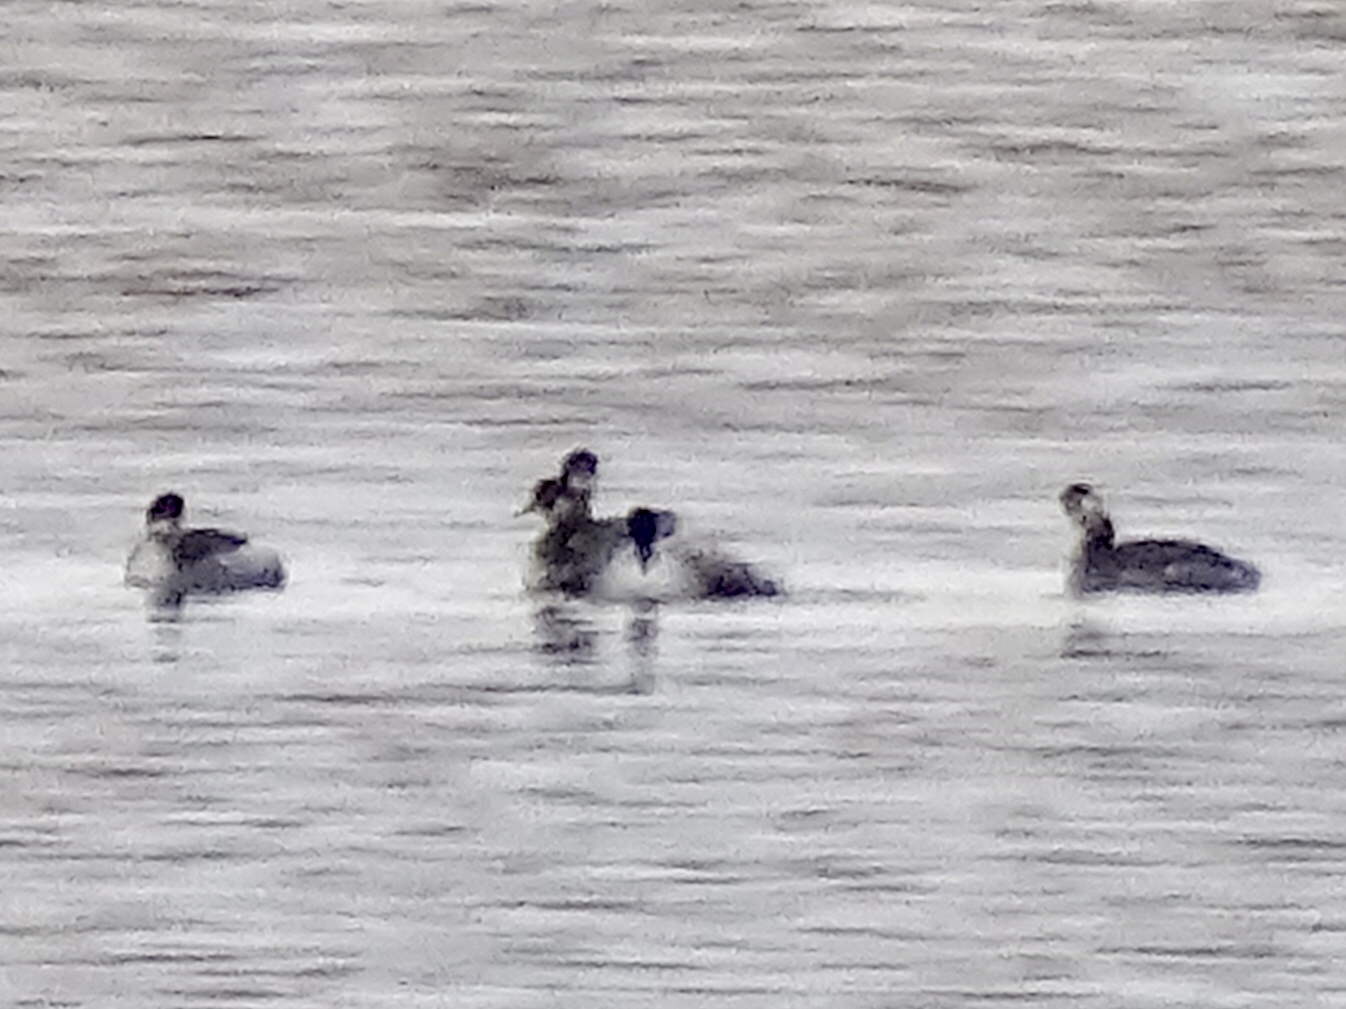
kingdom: Animalia
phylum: Chordata
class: Aves
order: Podicipediformes
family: Podicipedidae
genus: Podiceps
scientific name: Podiceps nigricollis
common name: Black-necked grebe
